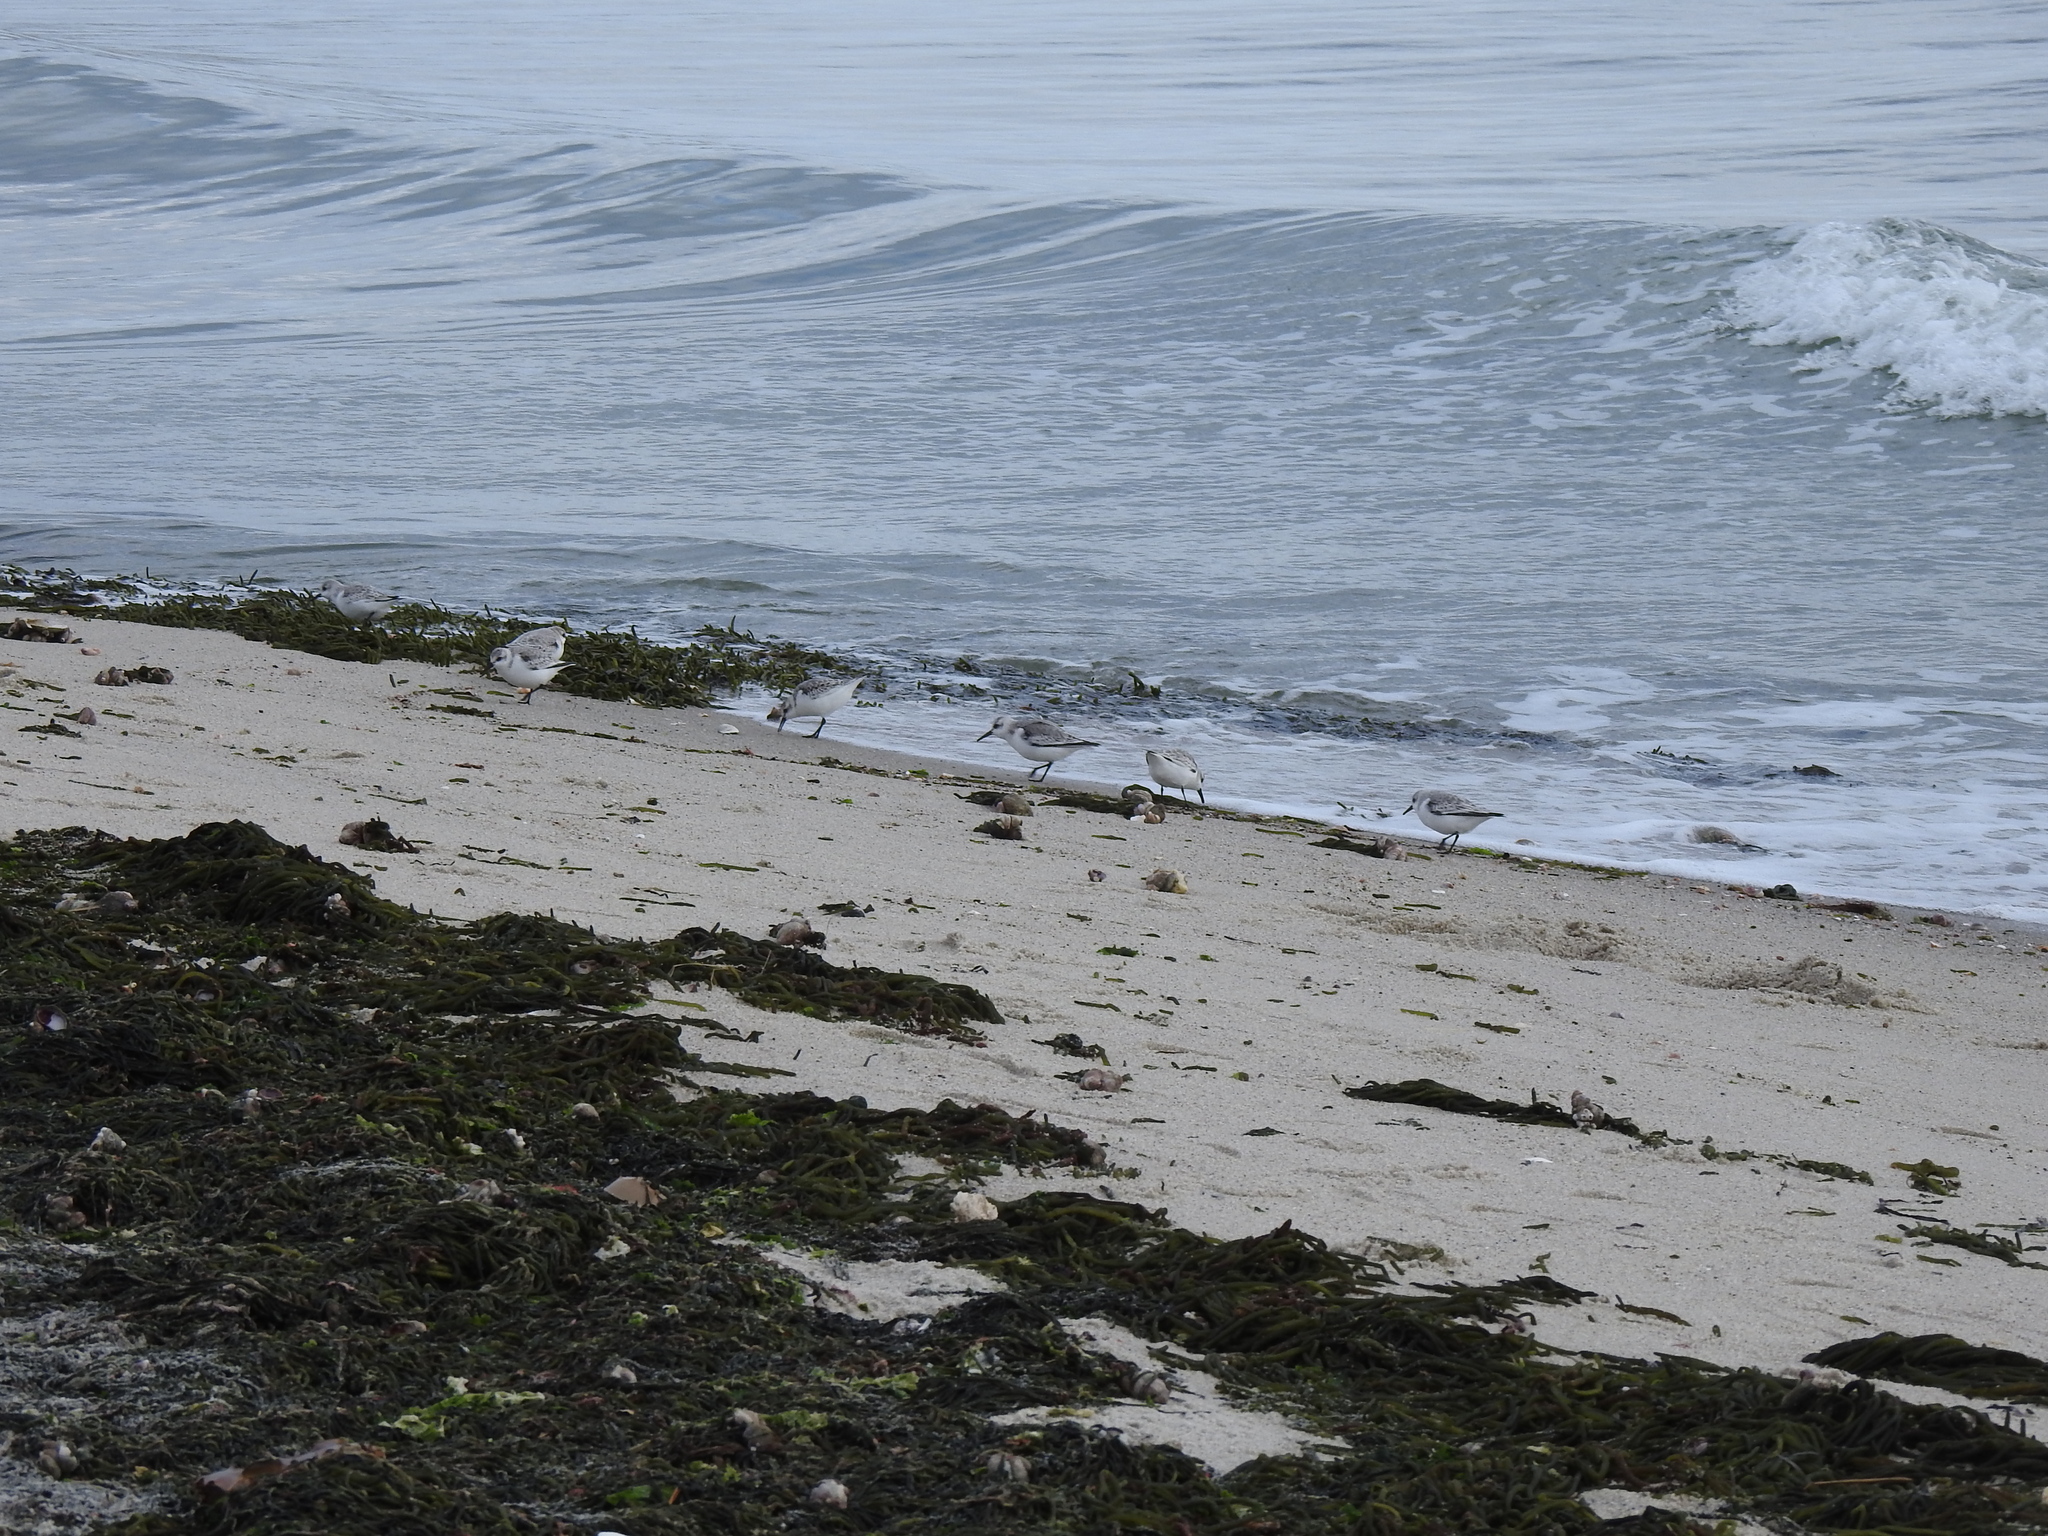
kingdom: Animalia
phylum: Chordata
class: Aves
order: Charadriiformes
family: Scolopacidae
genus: Calidris
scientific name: Calidris alba
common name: Sanderling
